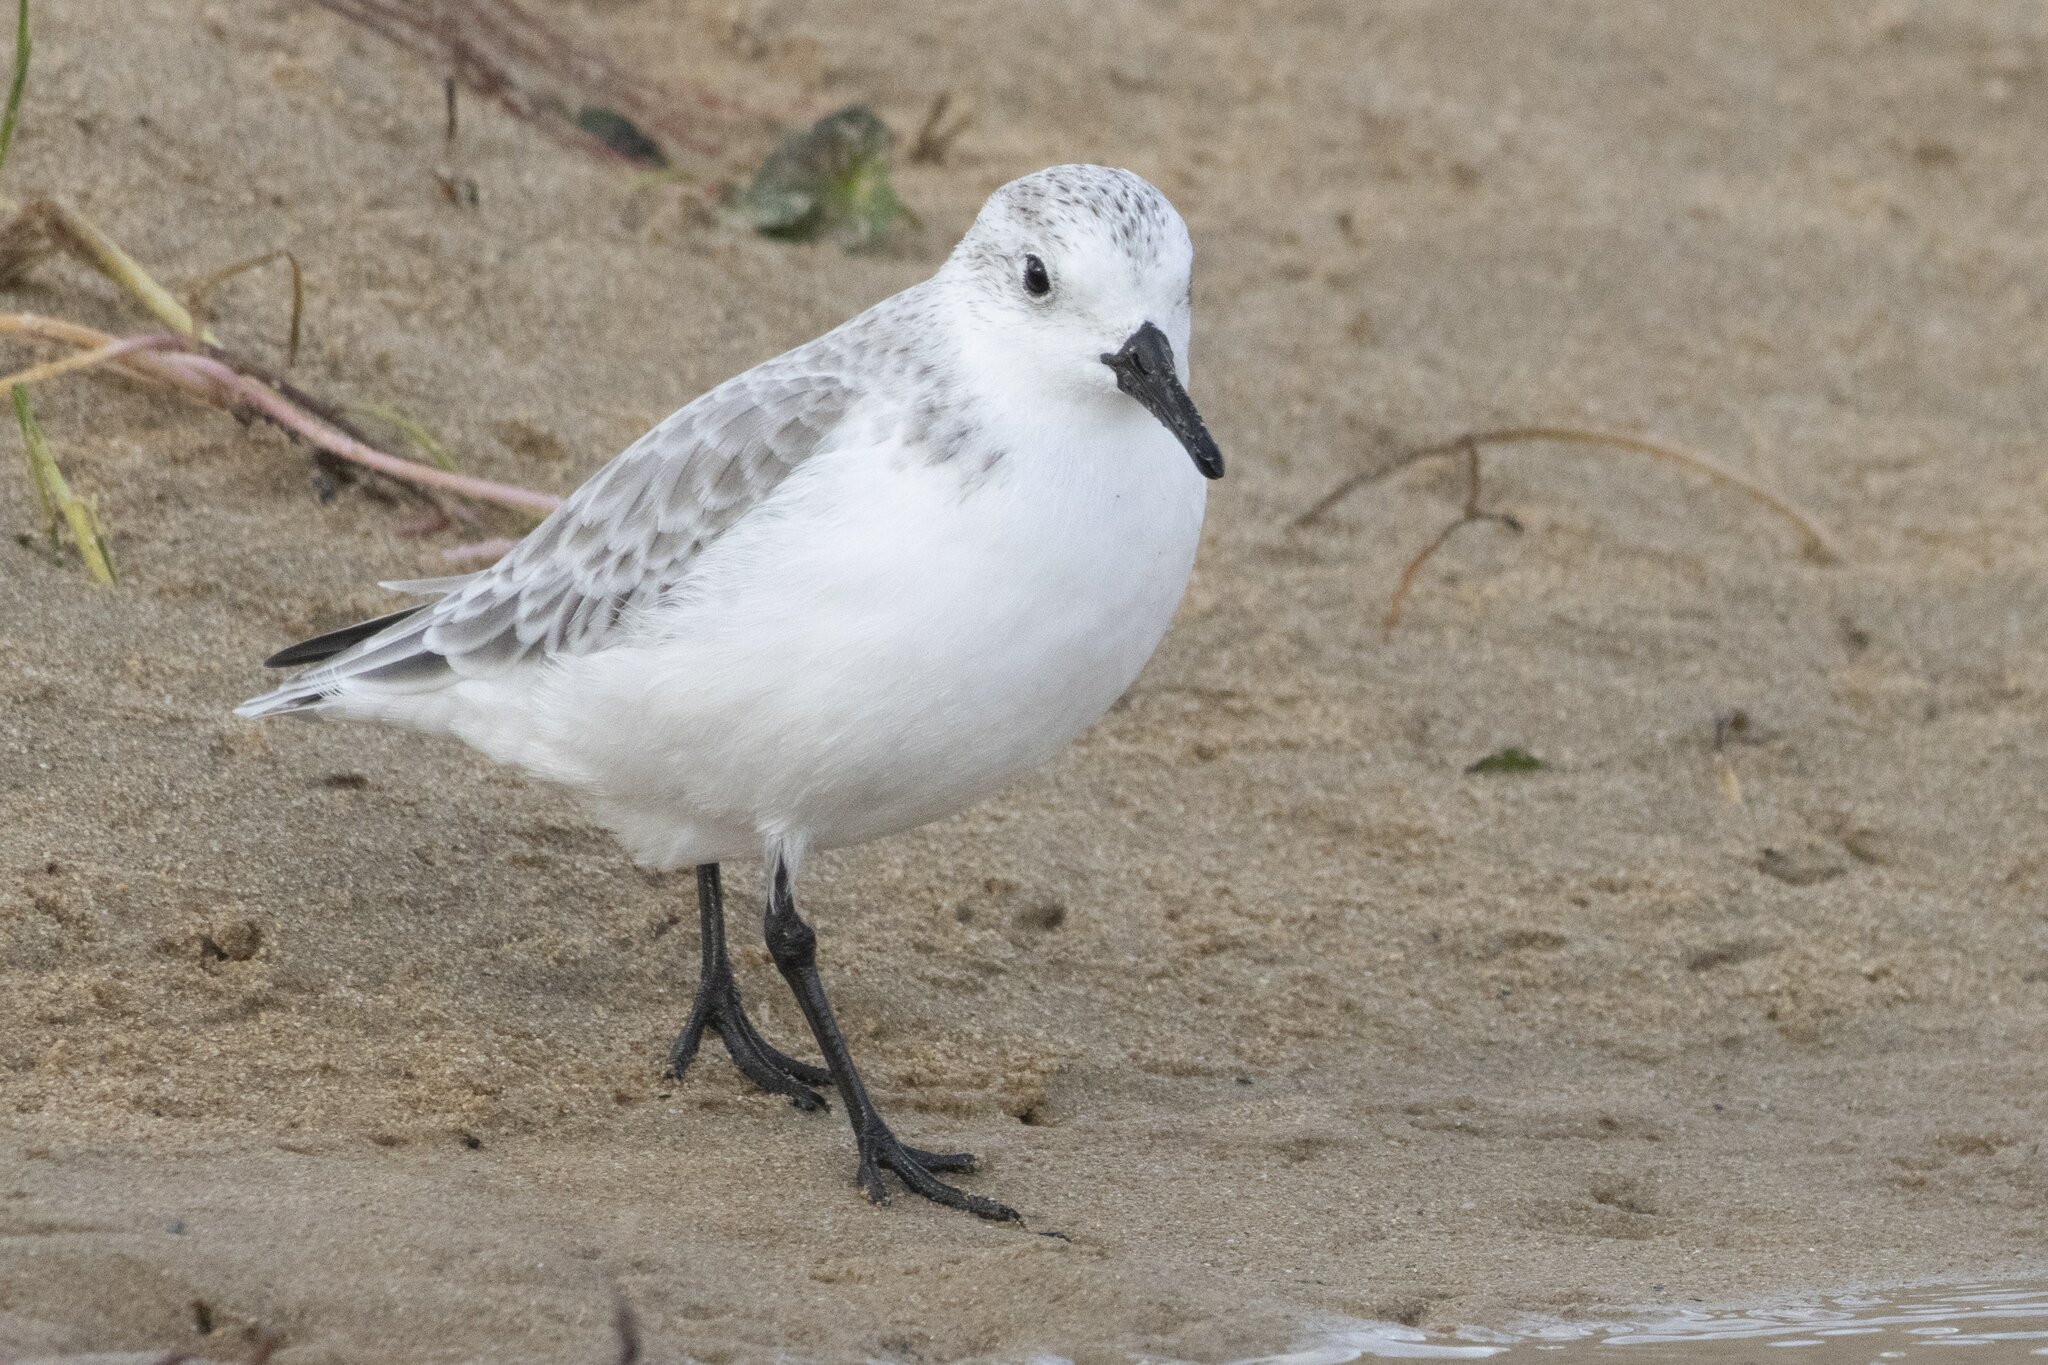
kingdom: Animalia
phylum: Chordata
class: Aves
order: Charadriiformes
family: Scolopacidae
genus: Calidris
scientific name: Calidris alba
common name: Sanderling
